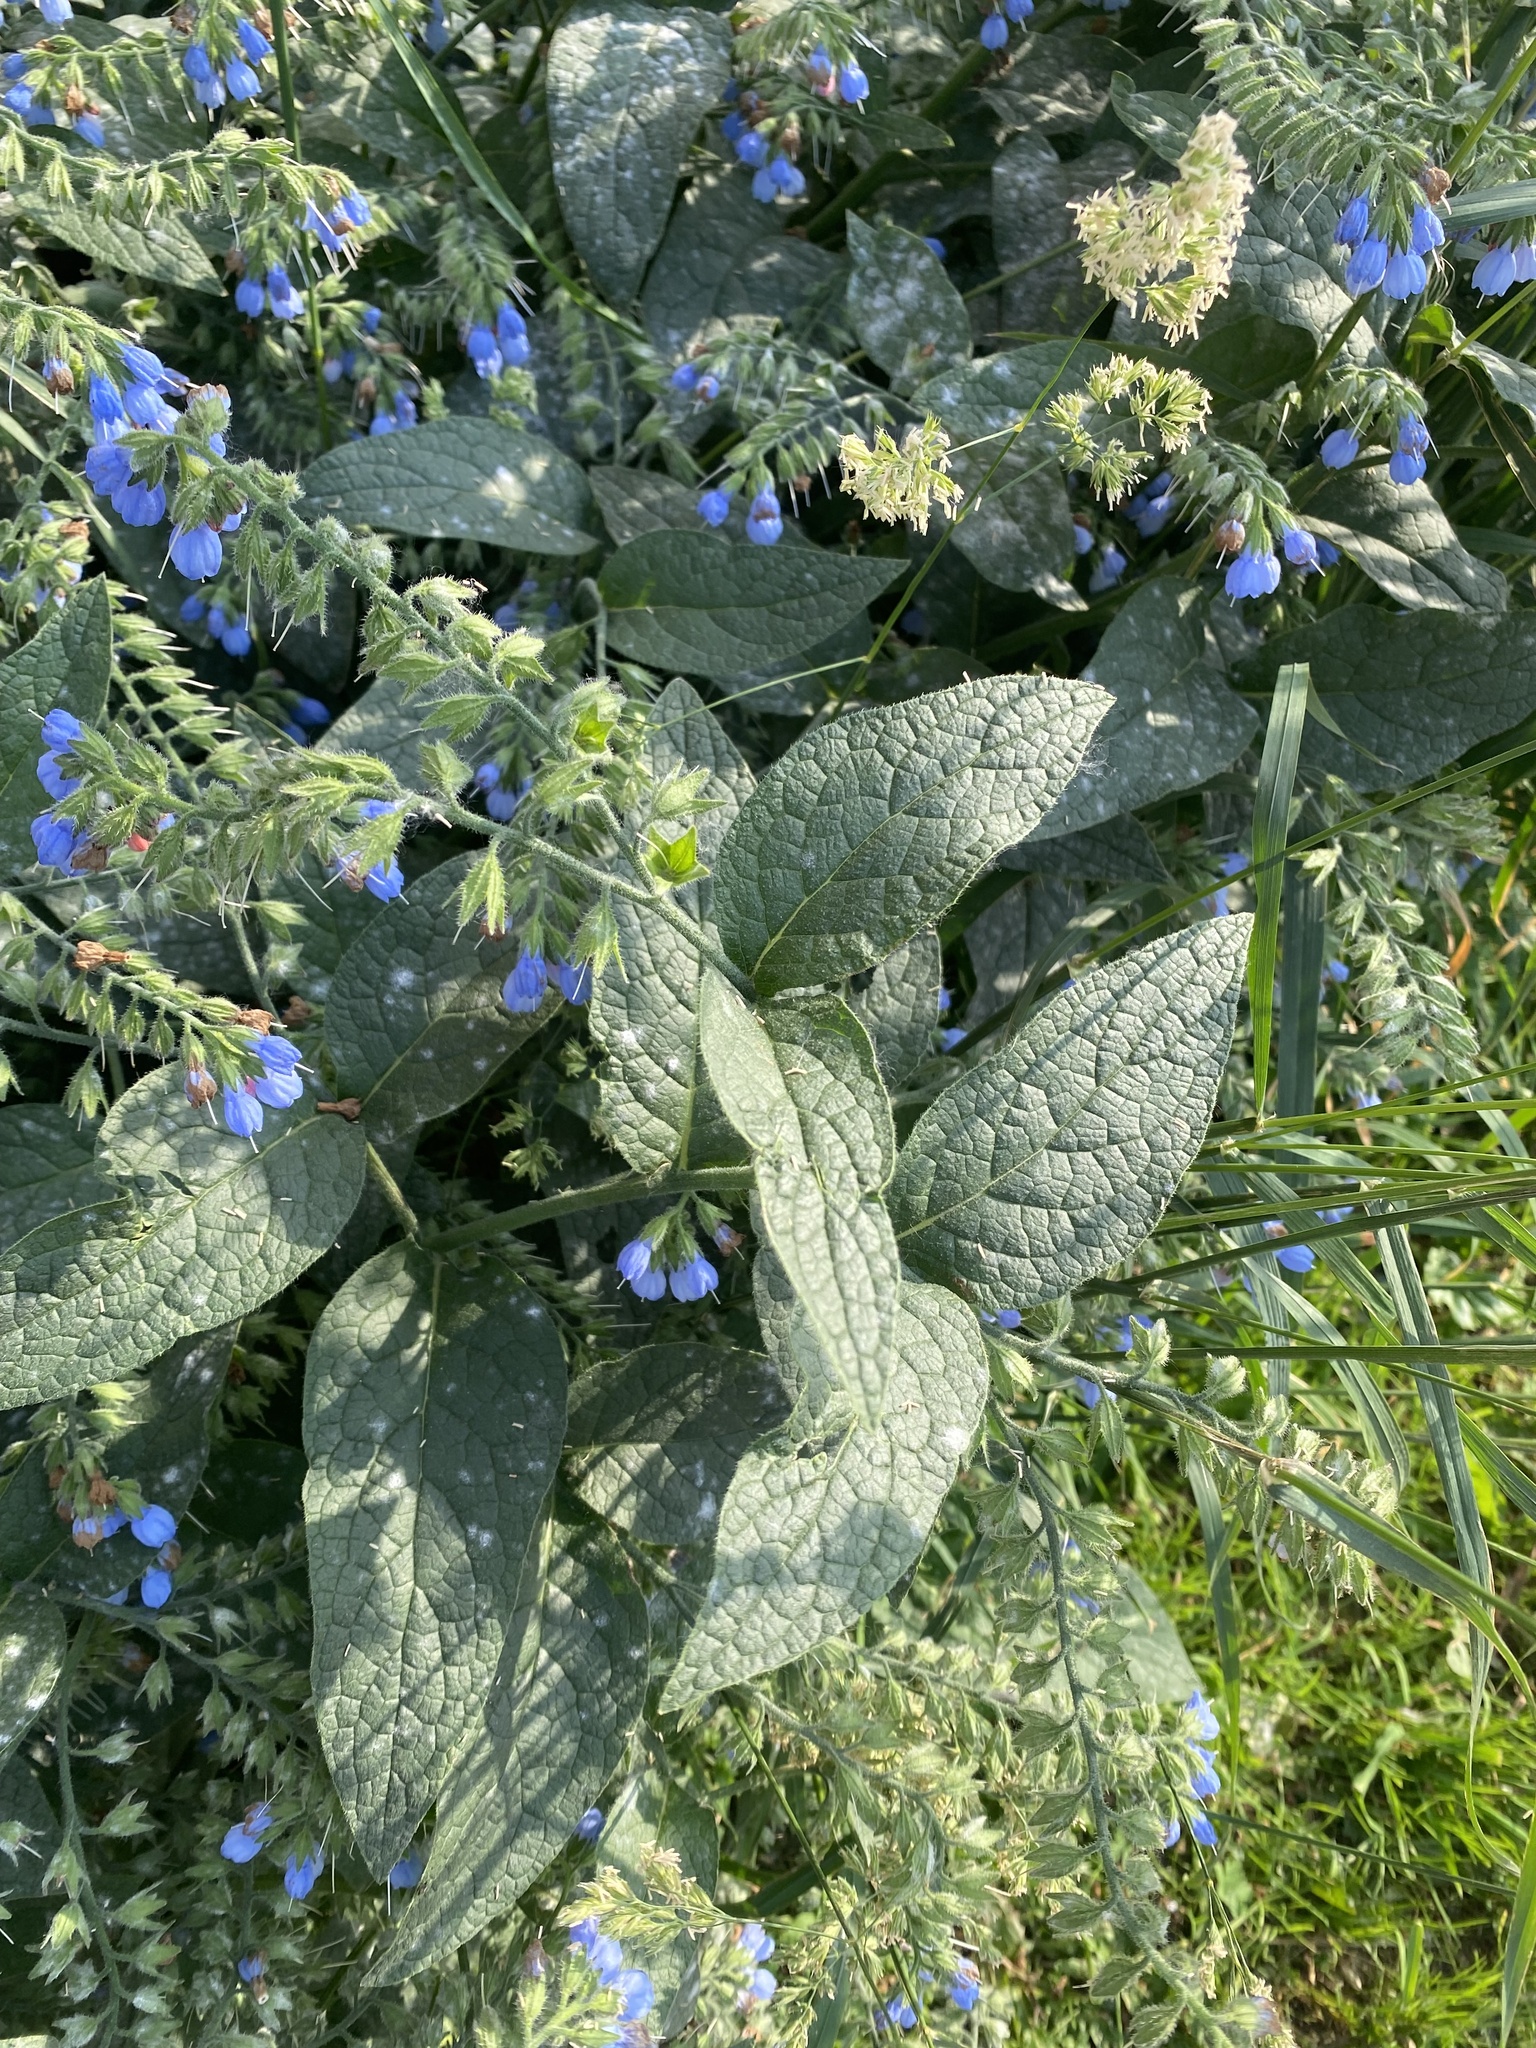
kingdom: Plantae
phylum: Tracheophyta
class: Magnoliopsida
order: Boraginales
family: Boraginaceae
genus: Symphytum
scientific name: Symphytum caucasicum
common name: Caucasian comfrey
